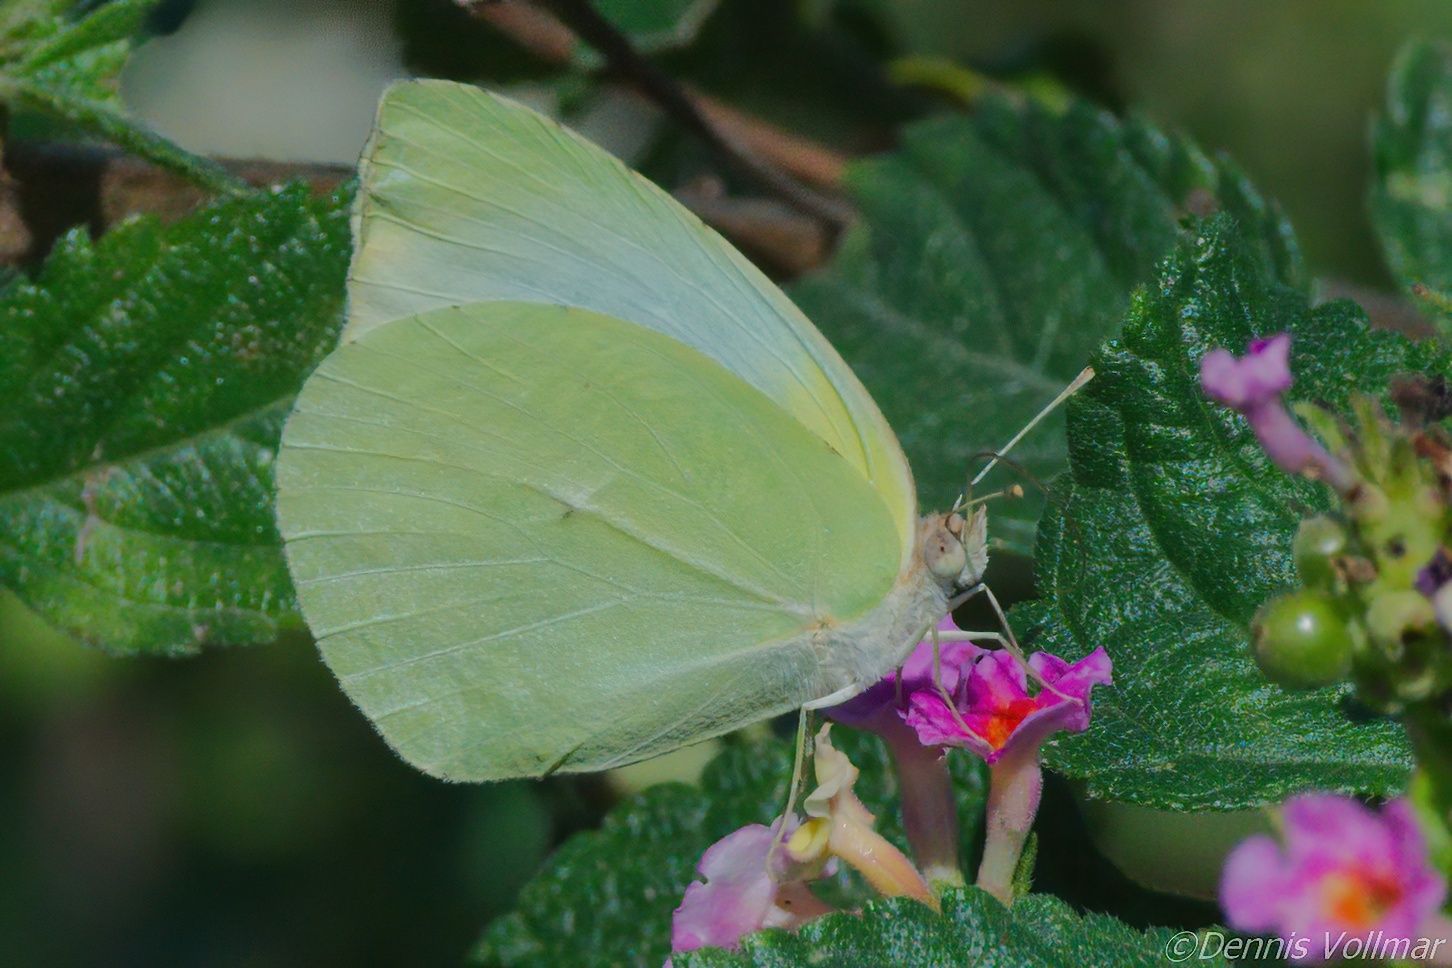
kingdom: Animalia
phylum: Arthropoda
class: Insecta
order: Lepidoptera
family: Pieridae
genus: Kricogonia
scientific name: Kricogonia lyside
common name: Guayacan sulphur,
